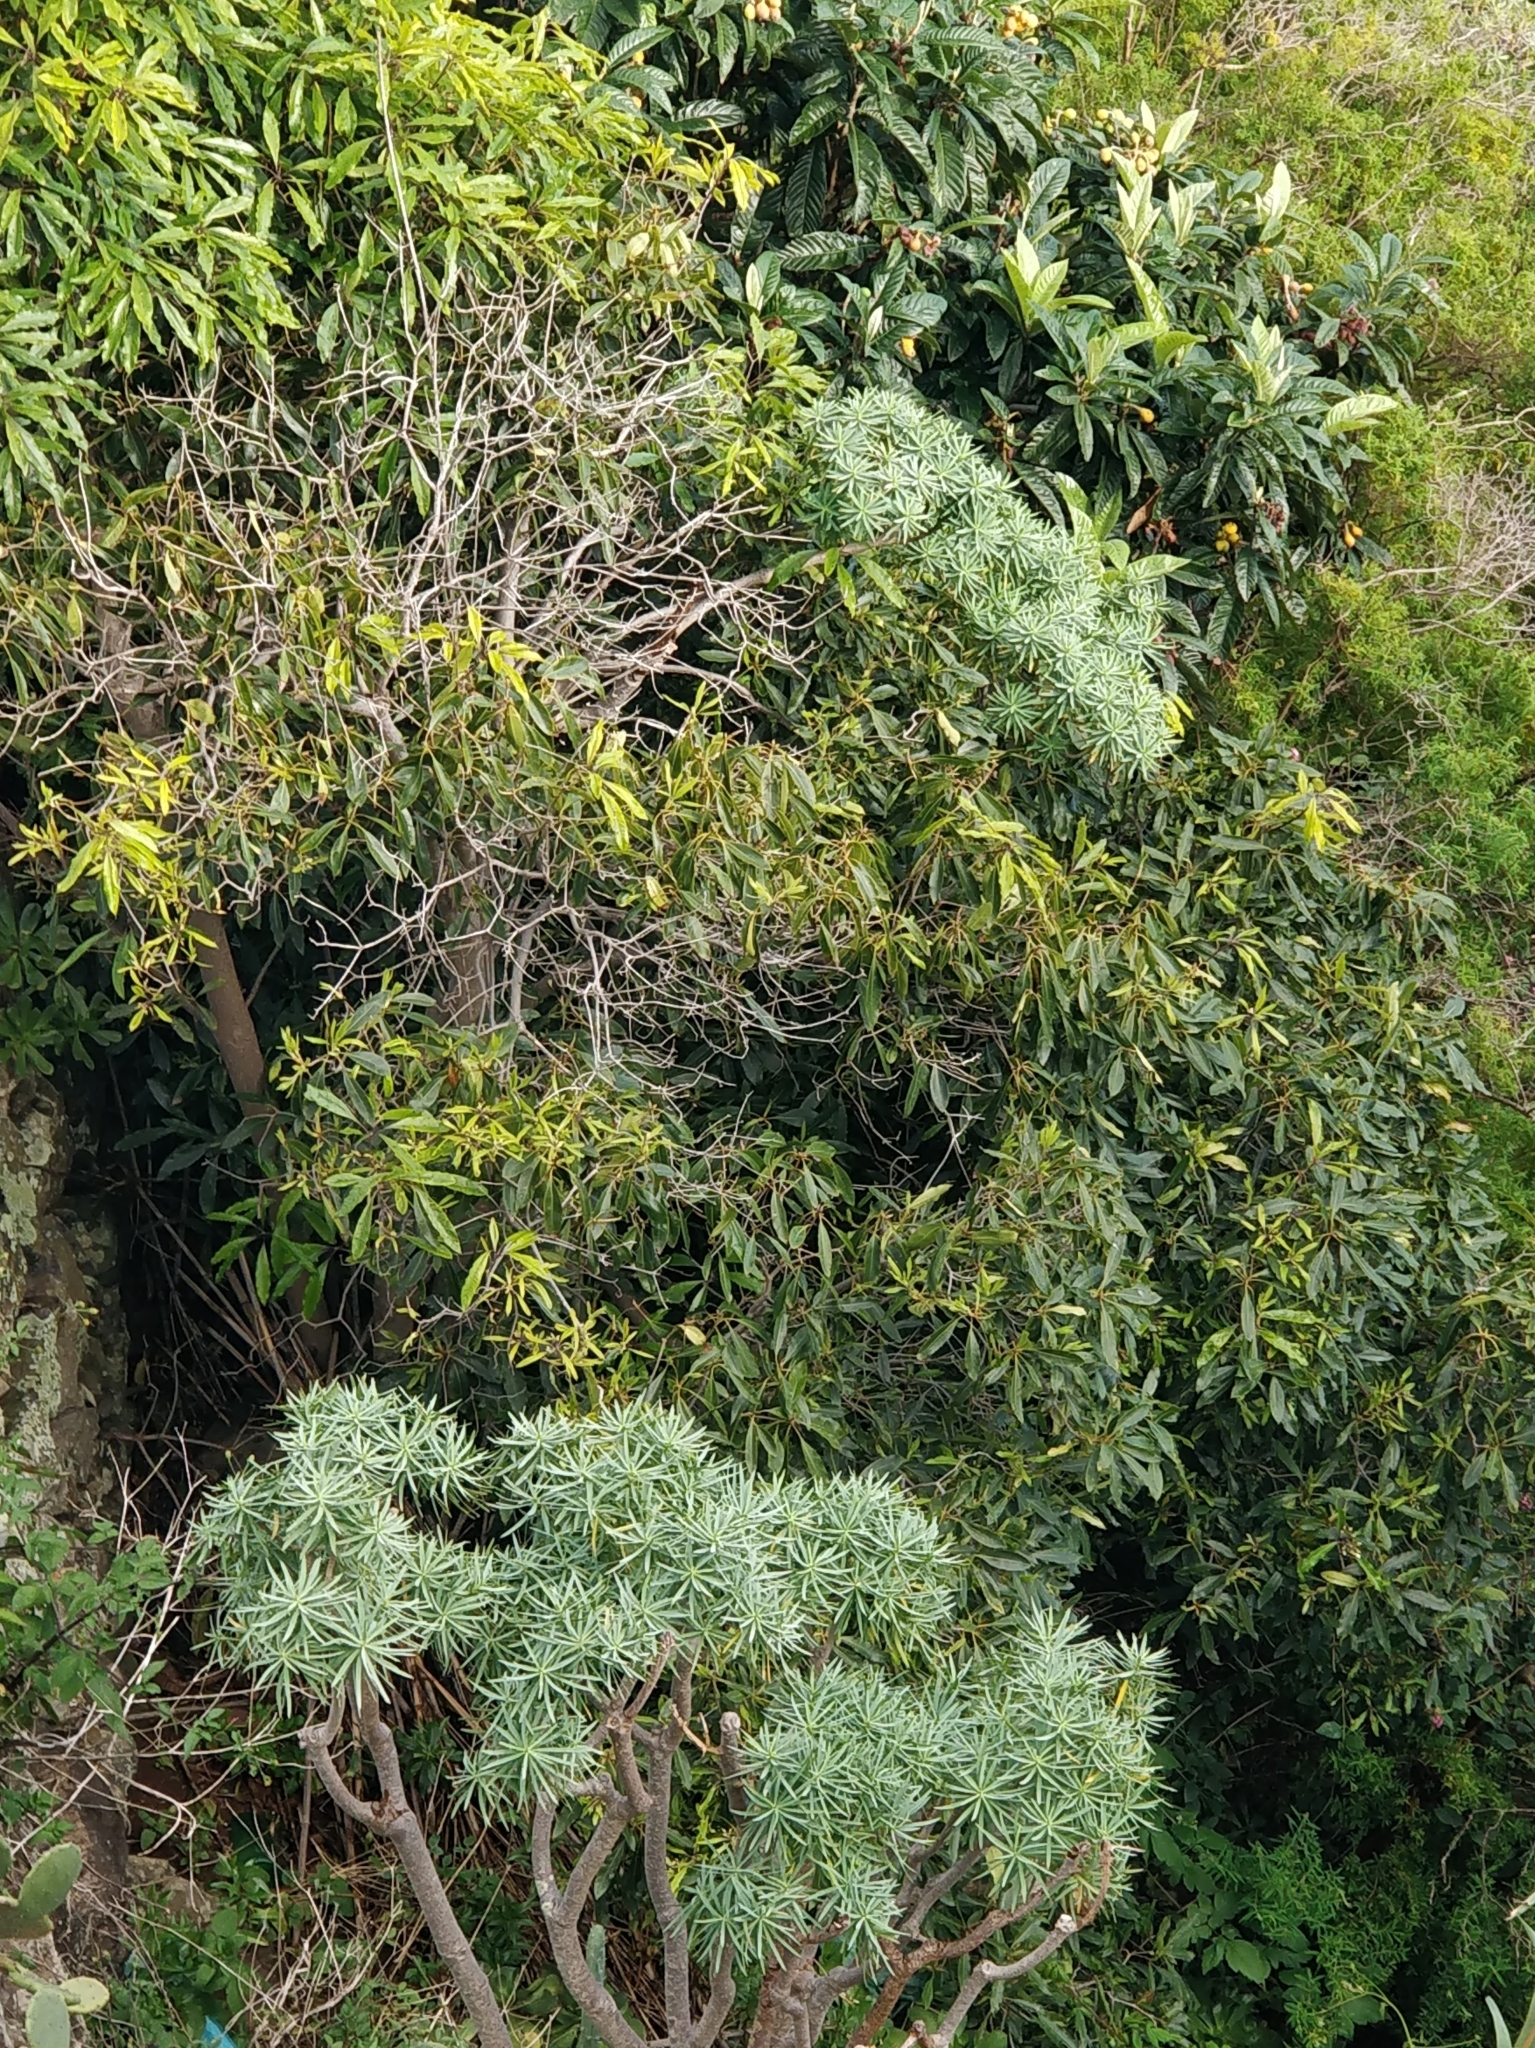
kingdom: Plantae
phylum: Tracheophyta
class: Magnoliopsida
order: Apiales
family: Pittosporaceae
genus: Pittosporum
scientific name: Pittosporum undulatum
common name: Australian cheesewood
